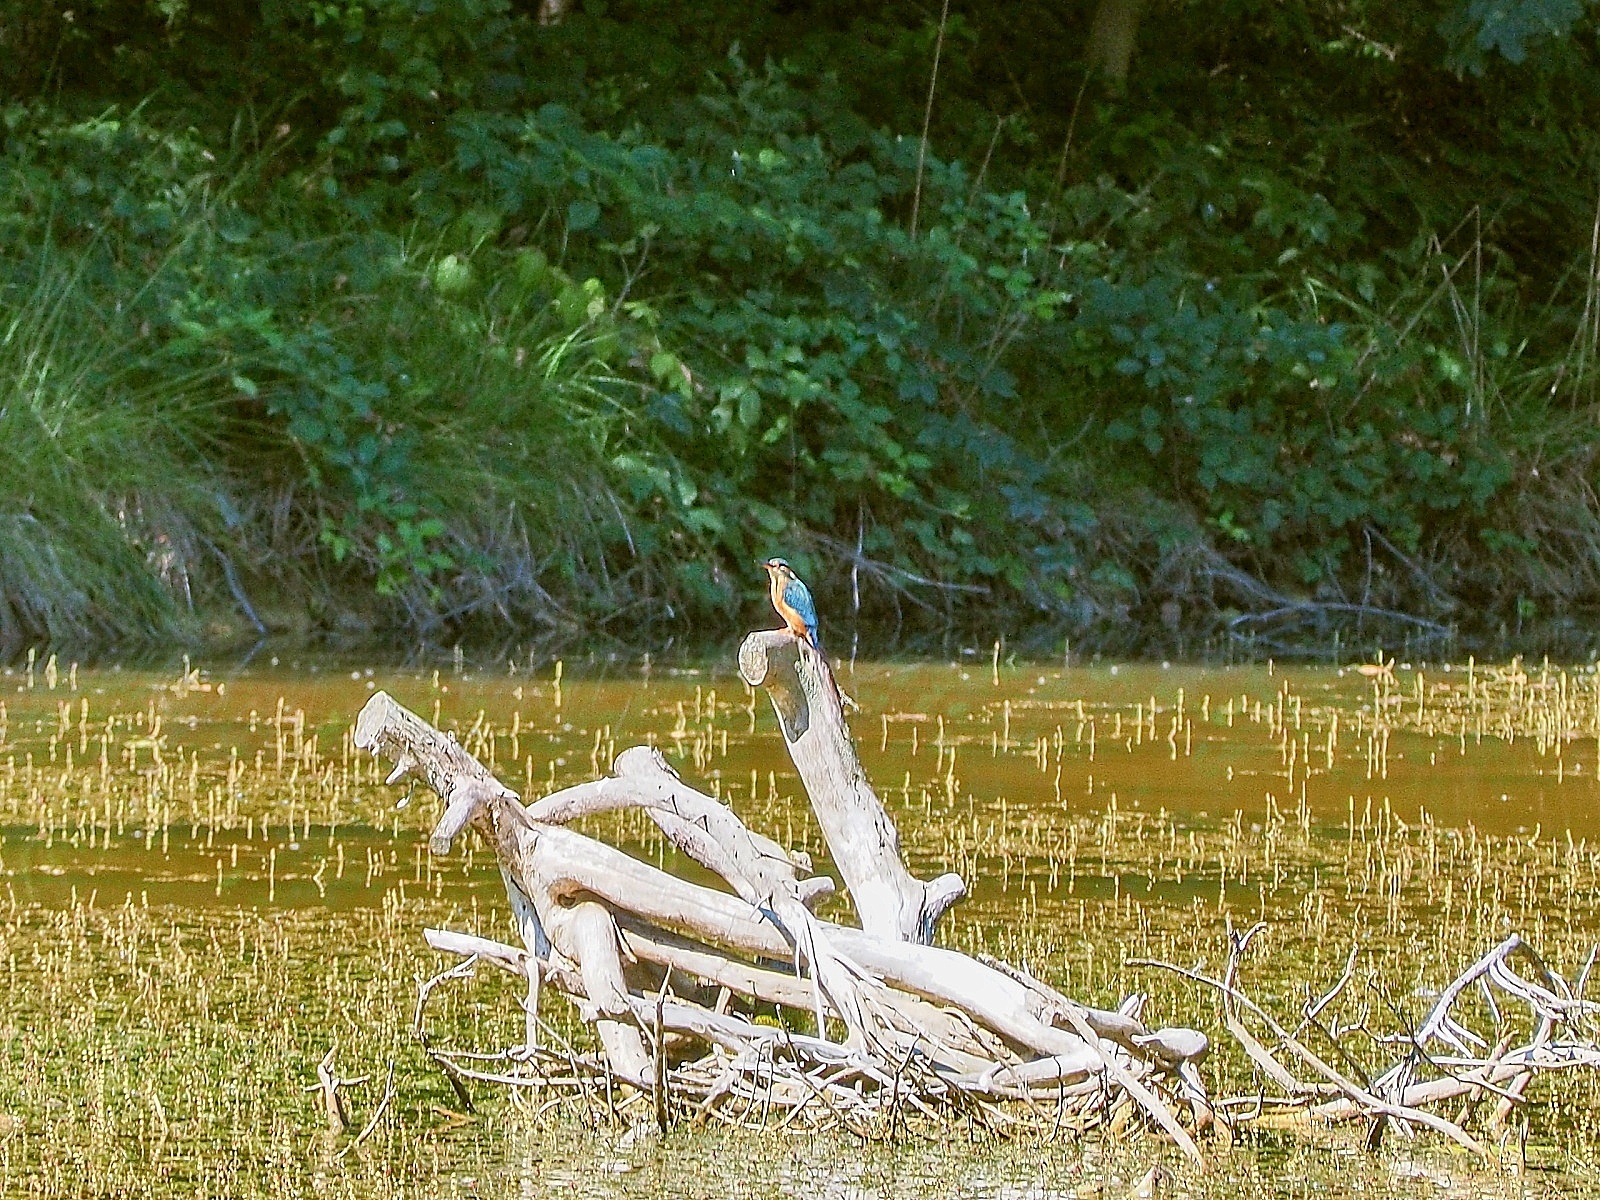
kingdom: Animalia
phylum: Chordata
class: Aves
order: Coraciiformes
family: Alcedinidae
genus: Alcedo
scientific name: Alcedo atthis
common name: Common kingfisher
